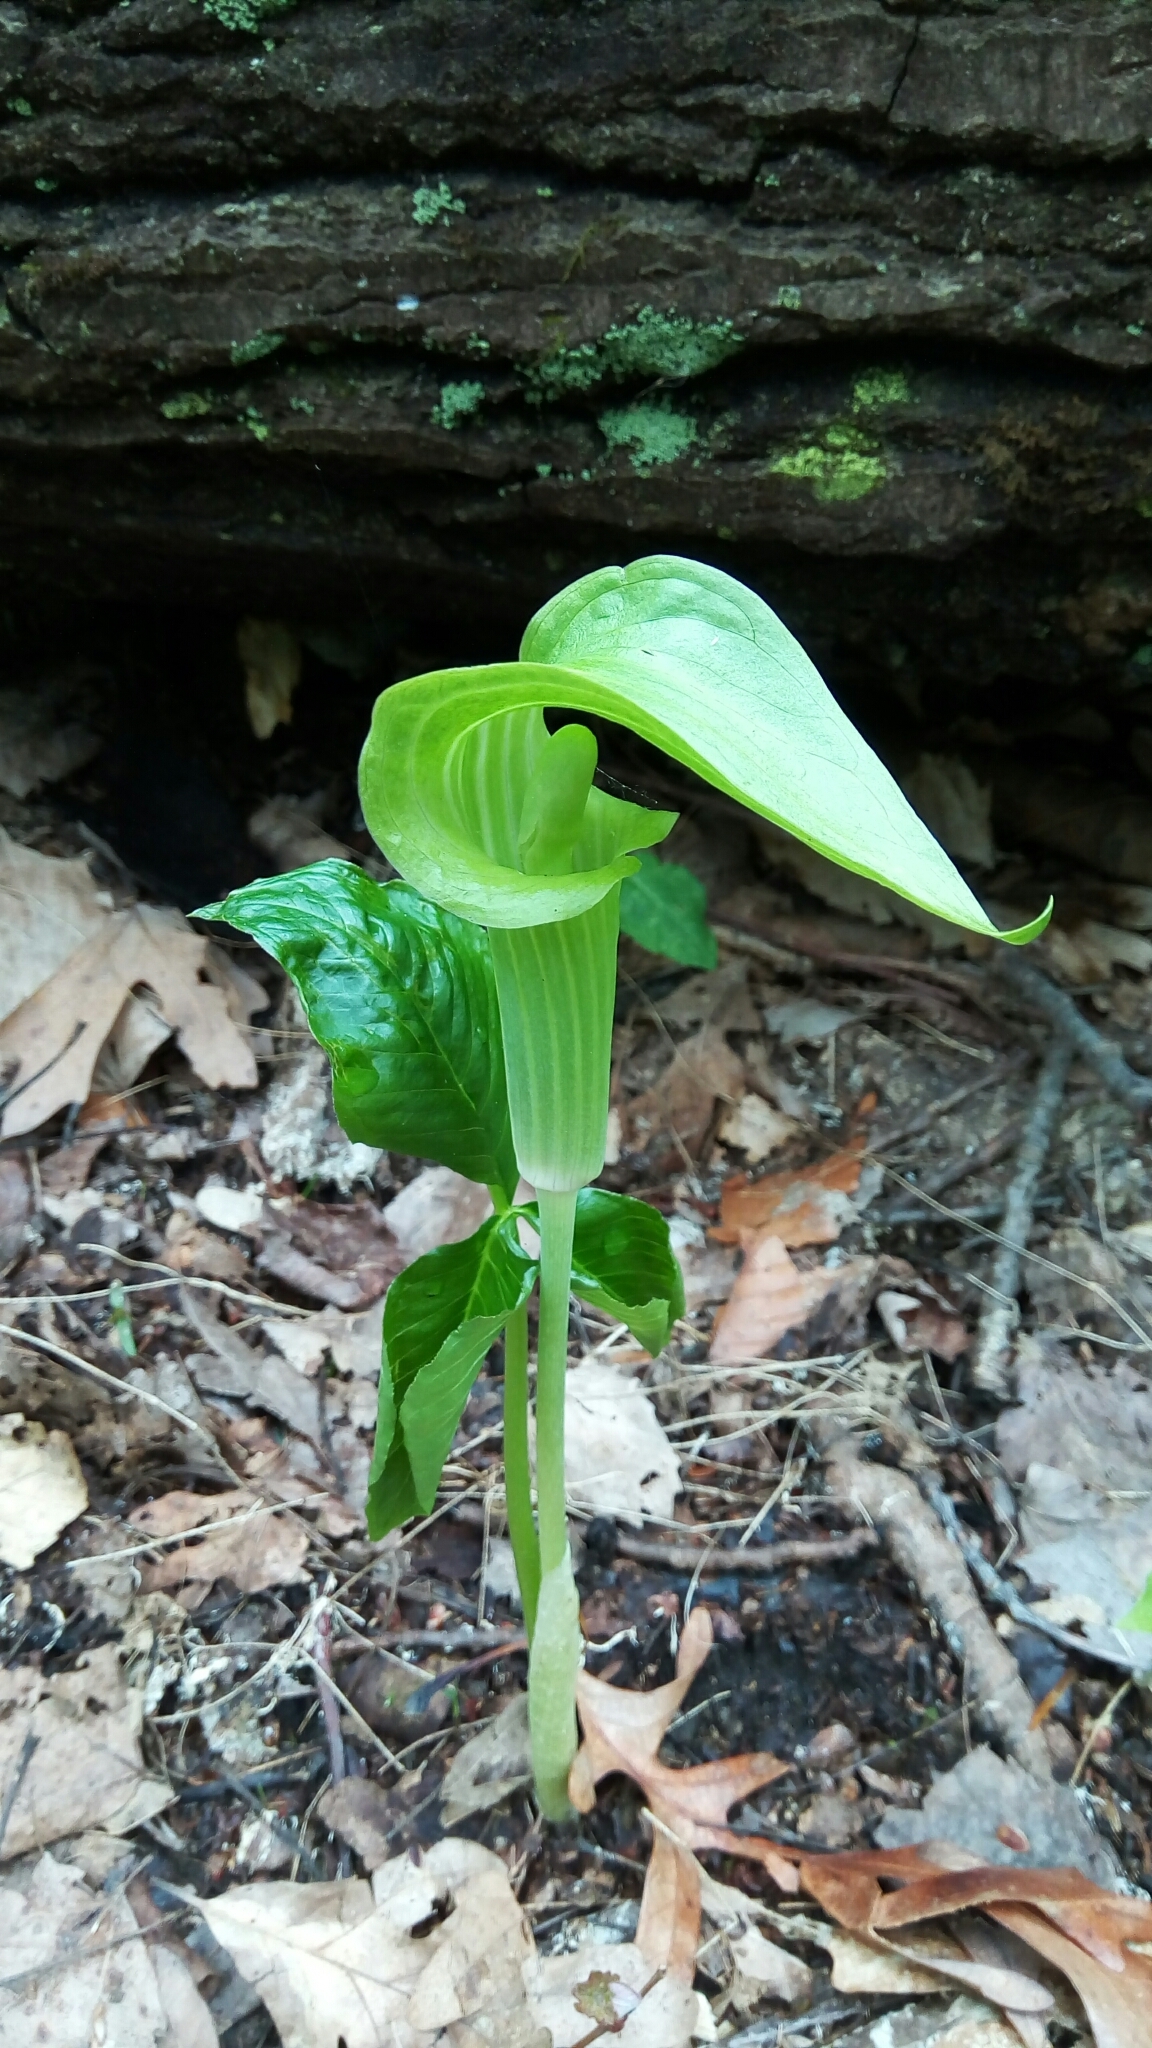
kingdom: Plantae
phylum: Tracheophyta
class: Liliopsida
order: Alismatales
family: Araceae
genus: Arisaema
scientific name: Arisaema triphyllum
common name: Jack-in-the-pulpit
